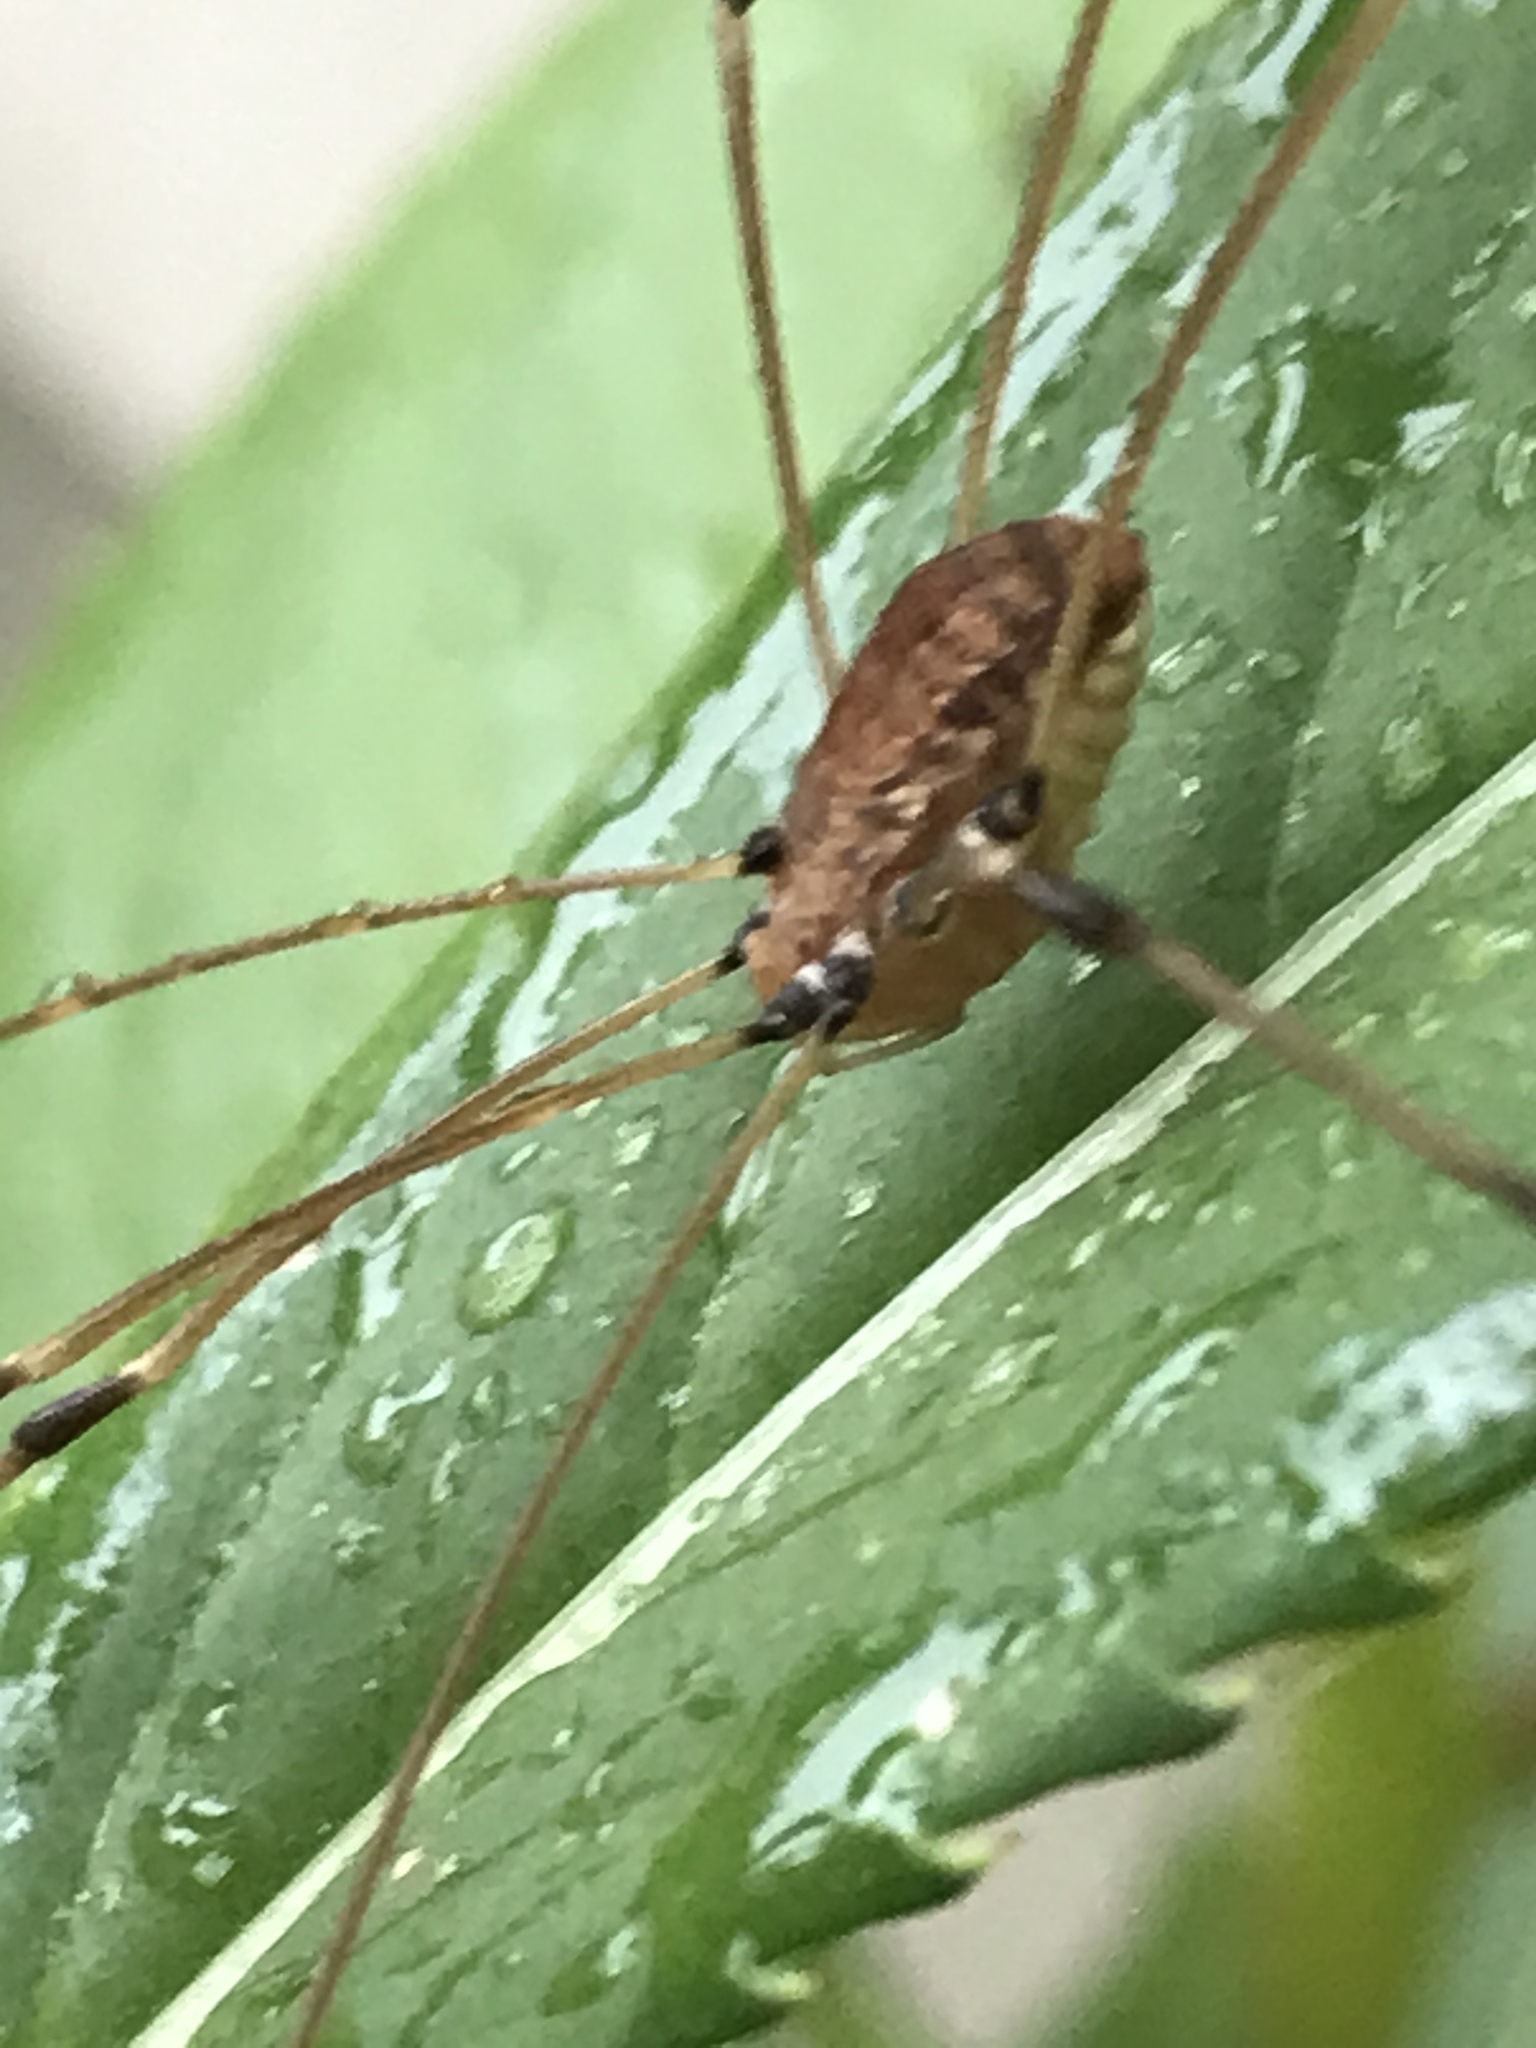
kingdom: Animalia
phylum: Arthropoda
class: Arachnida
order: Opiliones
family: Sclerosomatidae
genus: Leiobunum
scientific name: Leiobunum vittatum
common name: Eastern harvestman
